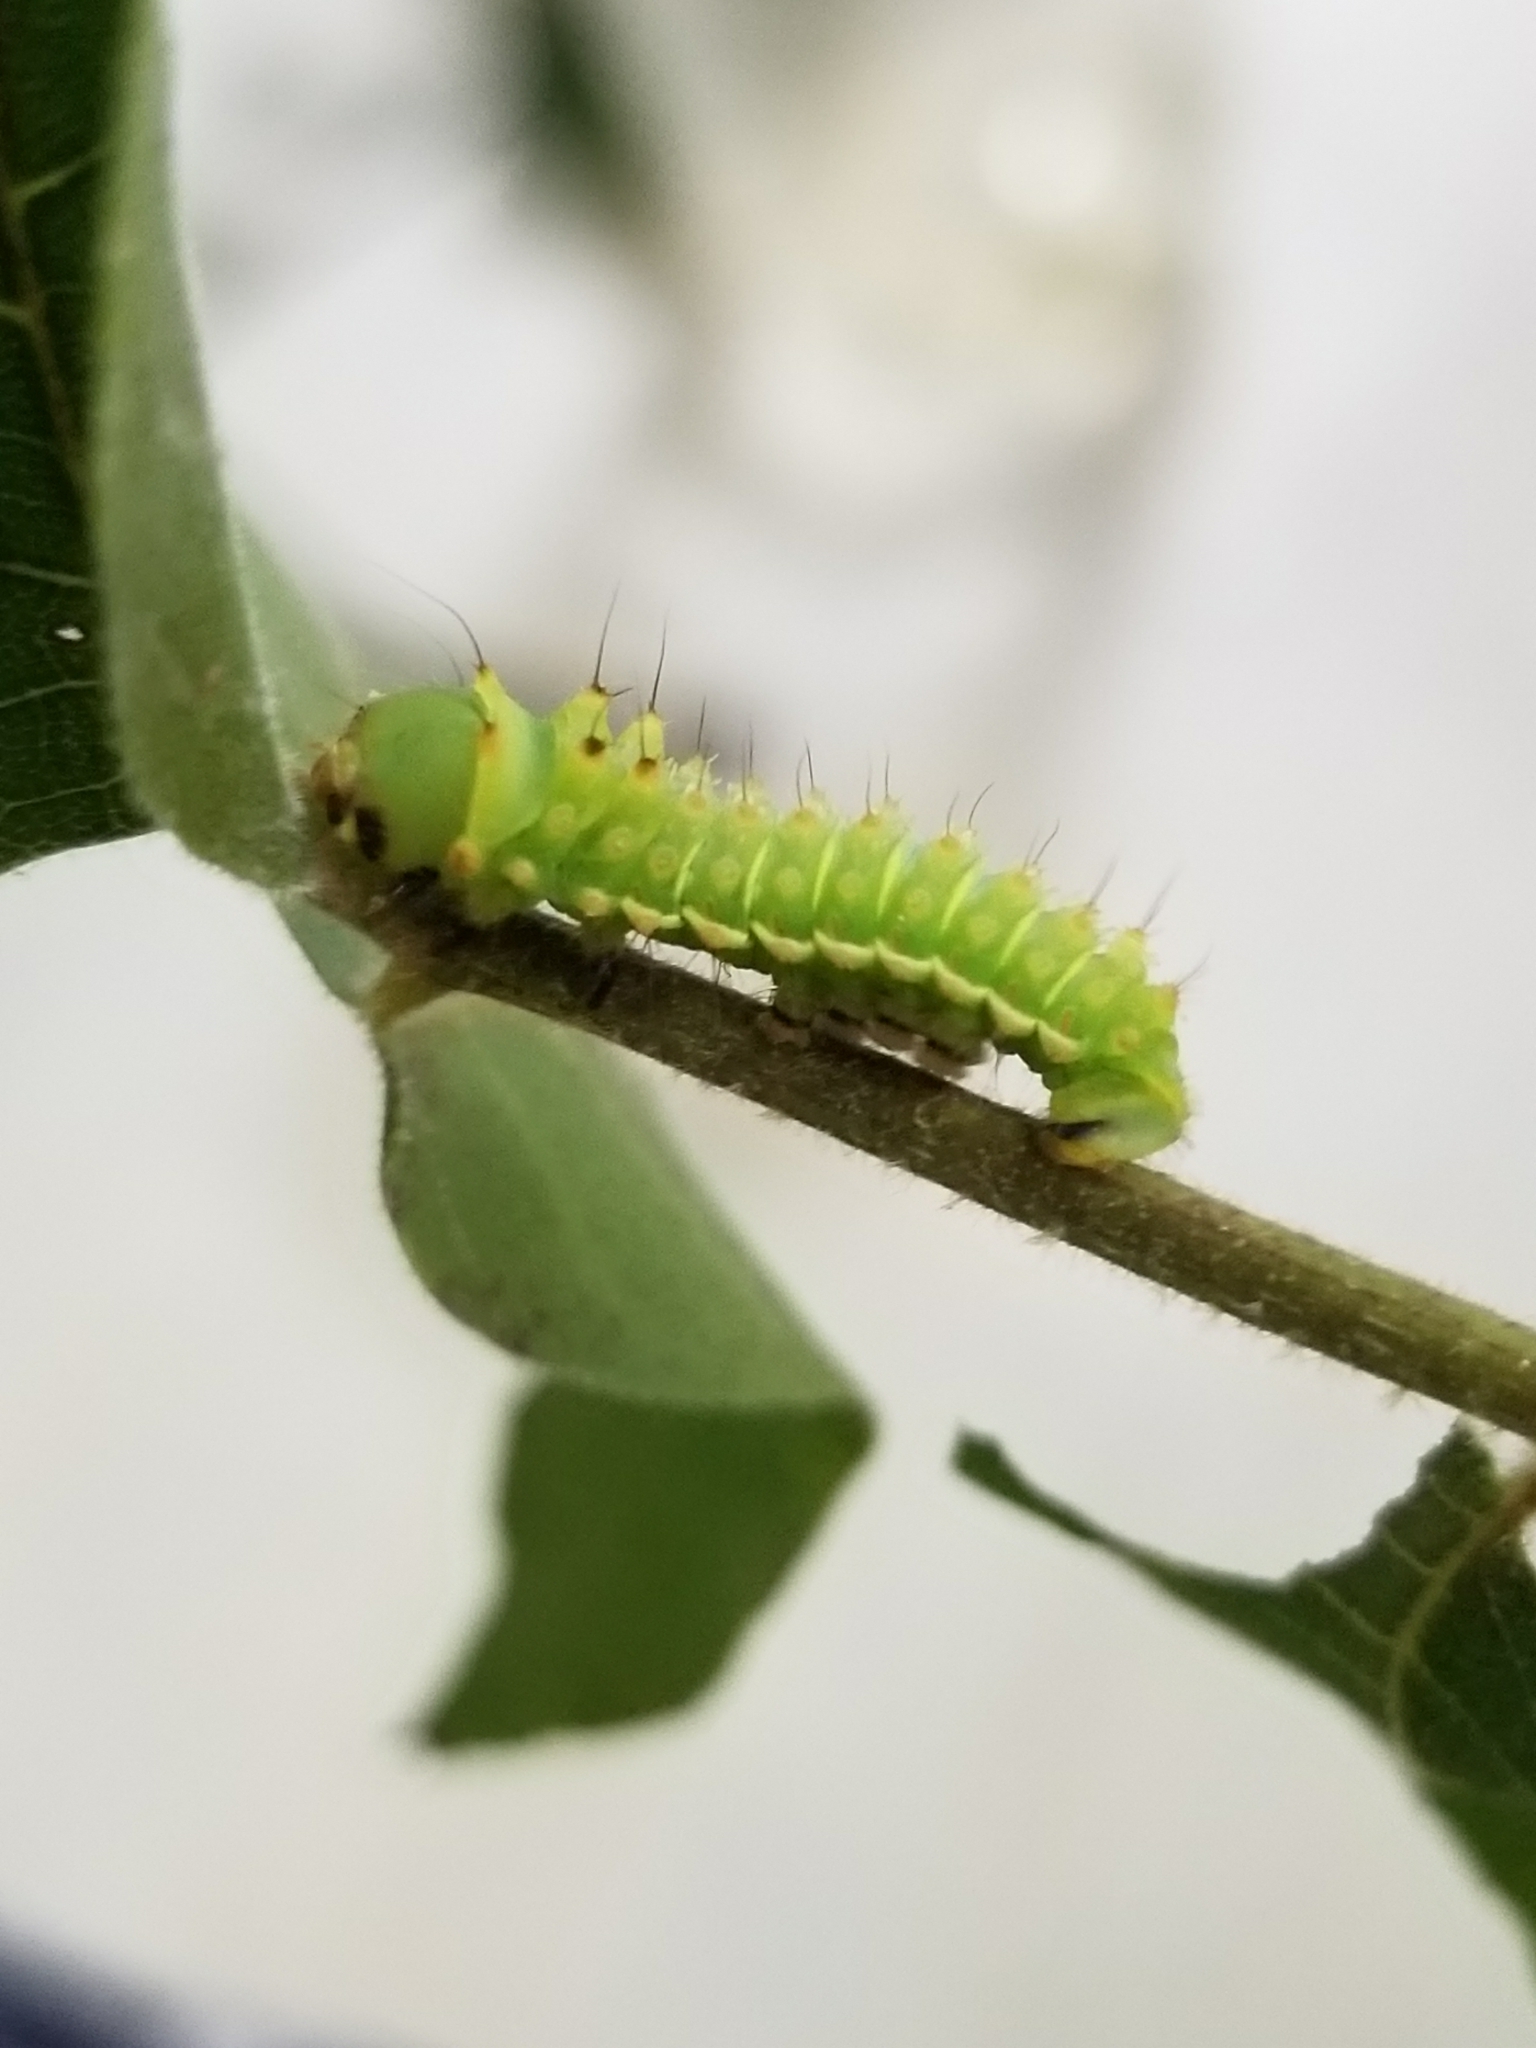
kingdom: Animalia
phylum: Arthropoda
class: Insecta
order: Lepidoptera
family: Saturniidae
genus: Actias
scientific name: Actias luna
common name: Luna moth
